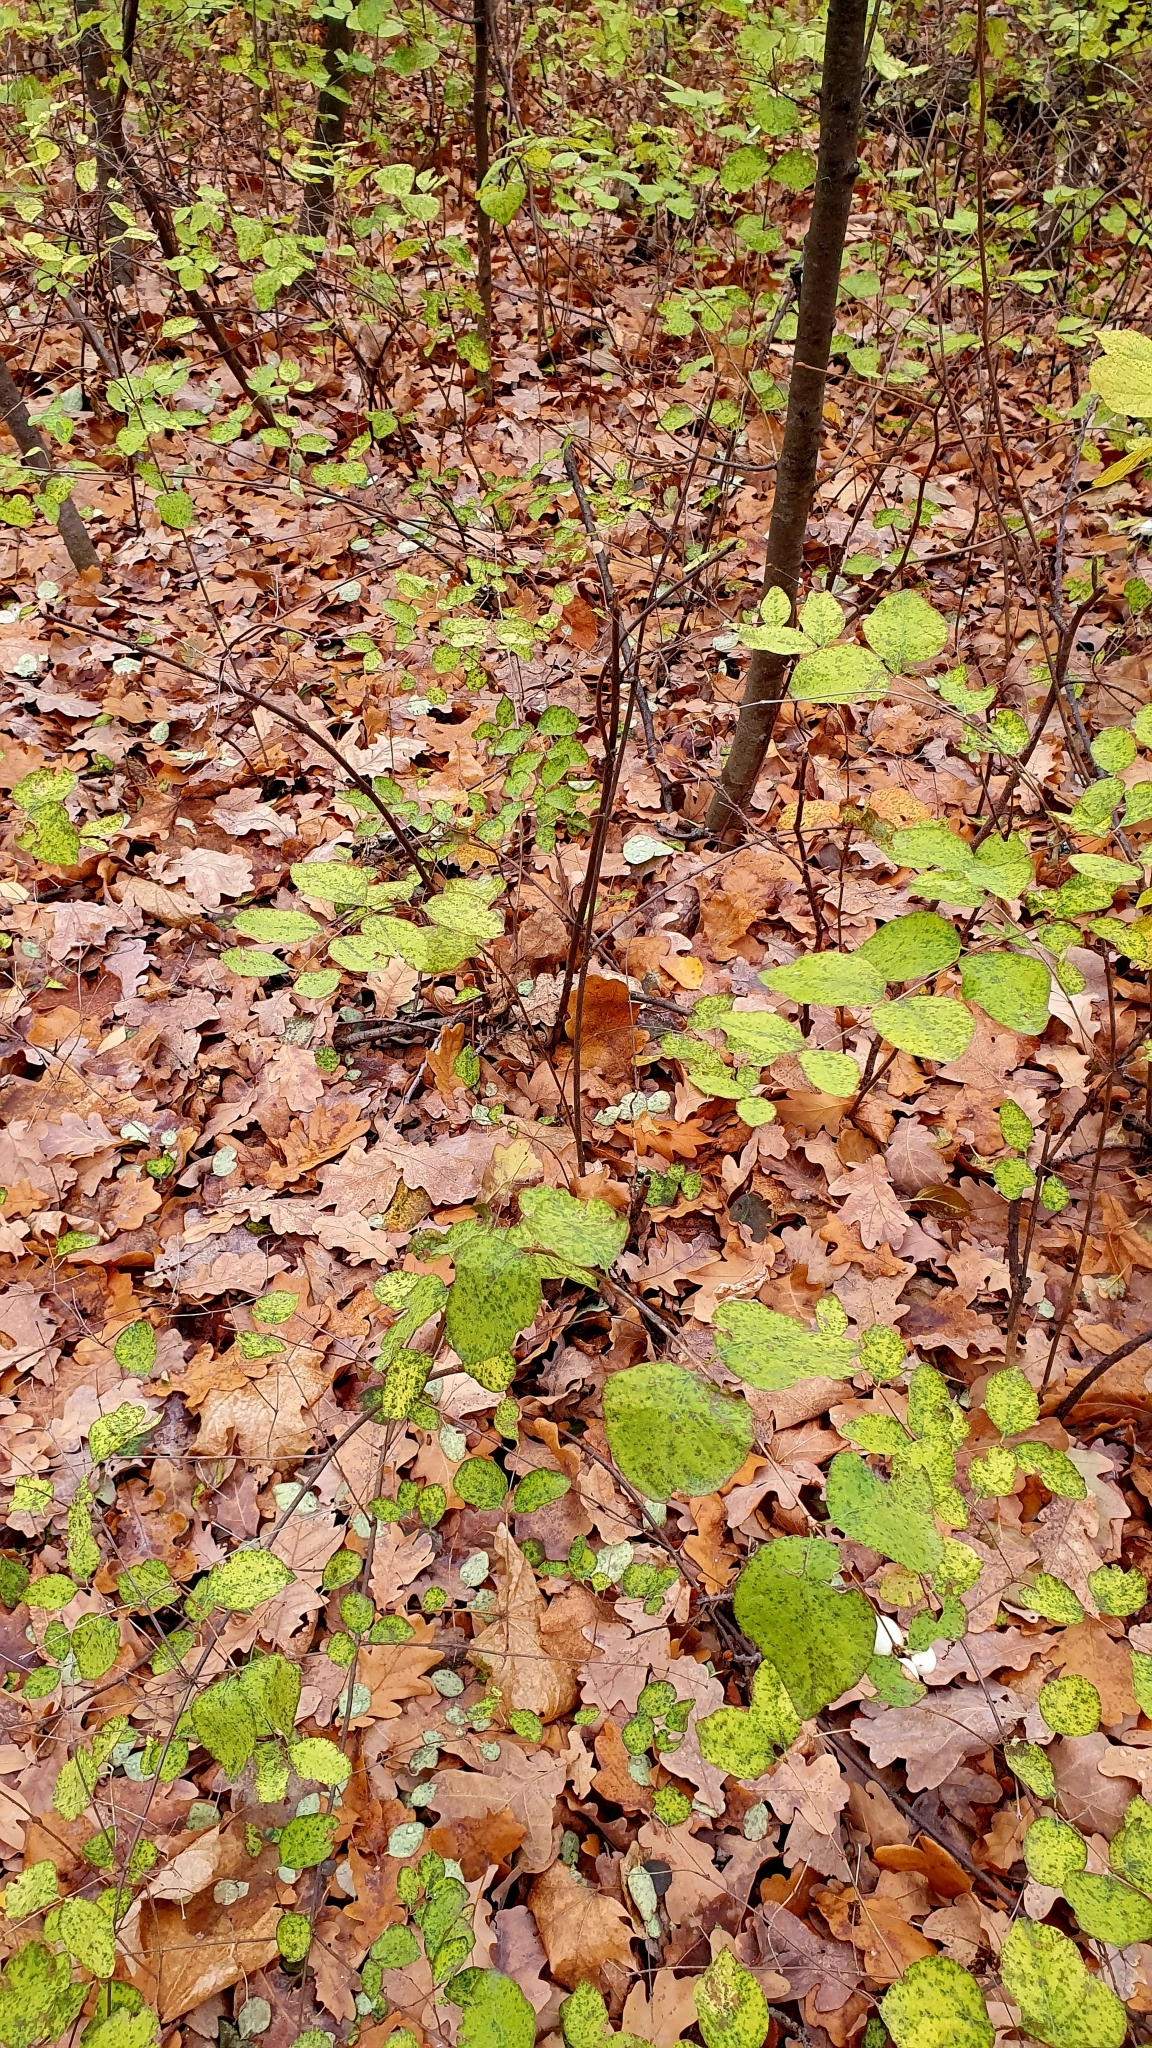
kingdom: Plantae
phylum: Tracheophyta
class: Magnoliopsida
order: Dipsacales
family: Caprifoliaceae
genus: Symphoricarpos
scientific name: Symphoricarpos albus
